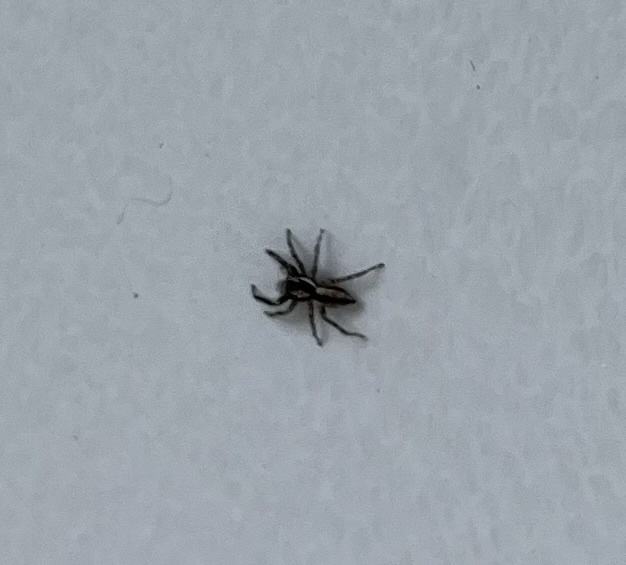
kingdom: Animalia
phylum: Arthropoda
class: Arachnida
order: Araneae
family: Salticidae
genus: Menemerus
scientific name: Menemerus bivittatus
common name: Gray wall jumper
